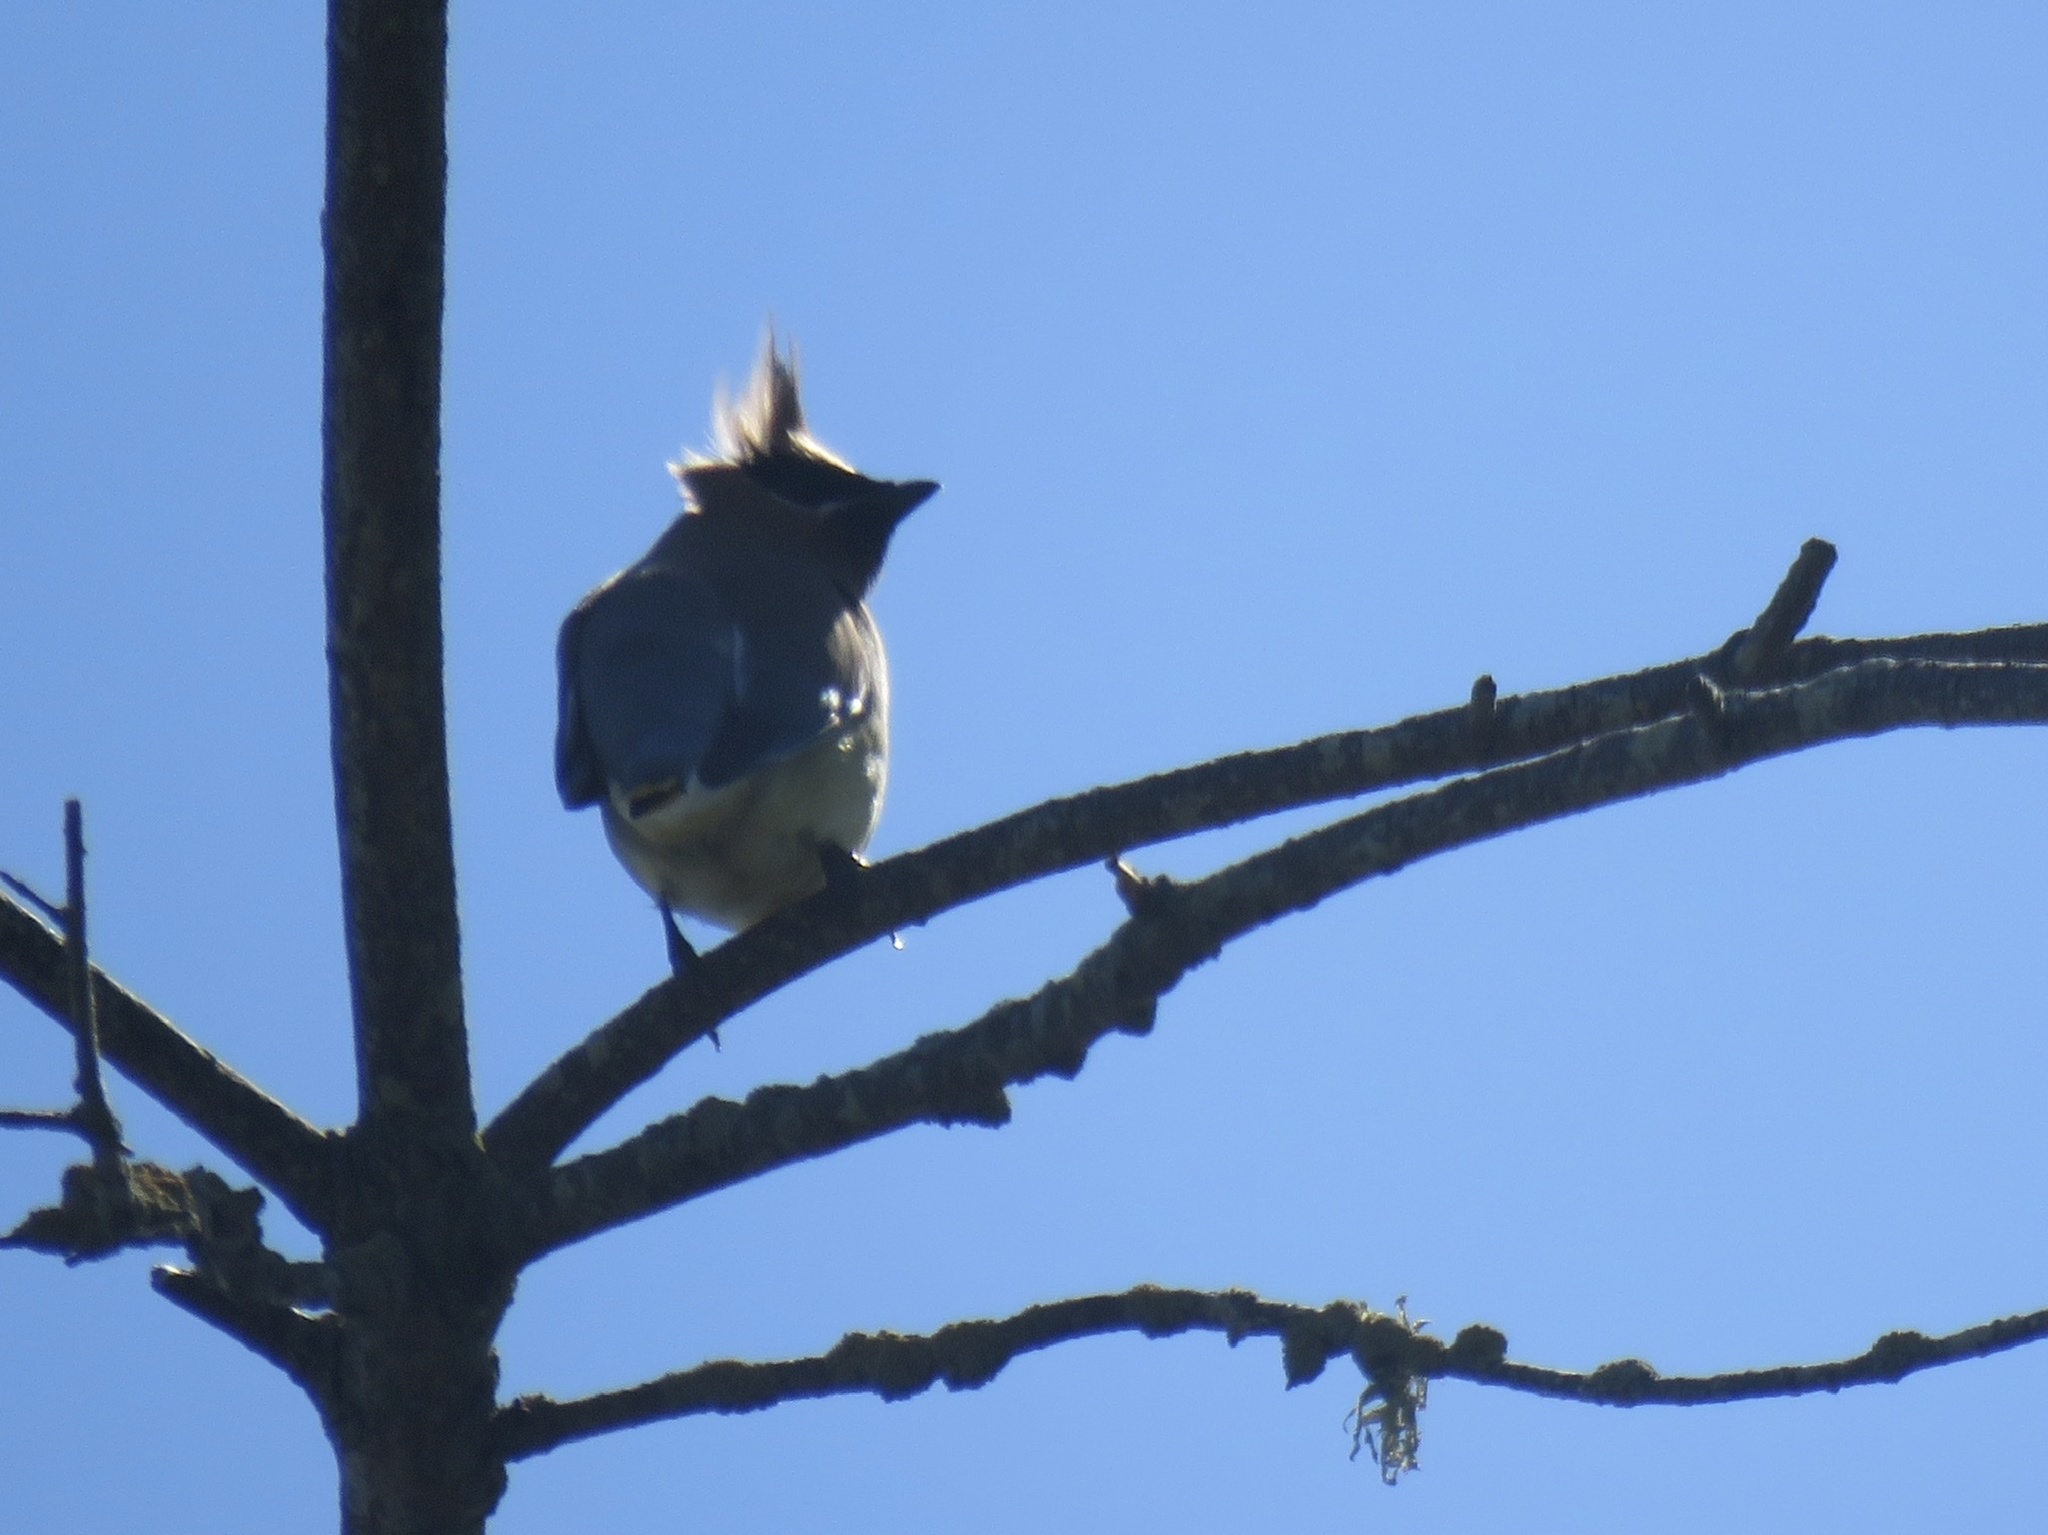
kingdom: Animalia
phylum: Chordata
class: Aves
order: Passeriformes
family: Bombycillidae
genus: Bombycilla
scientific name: Bombycilla cedrorum
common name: Cedar waxwing
